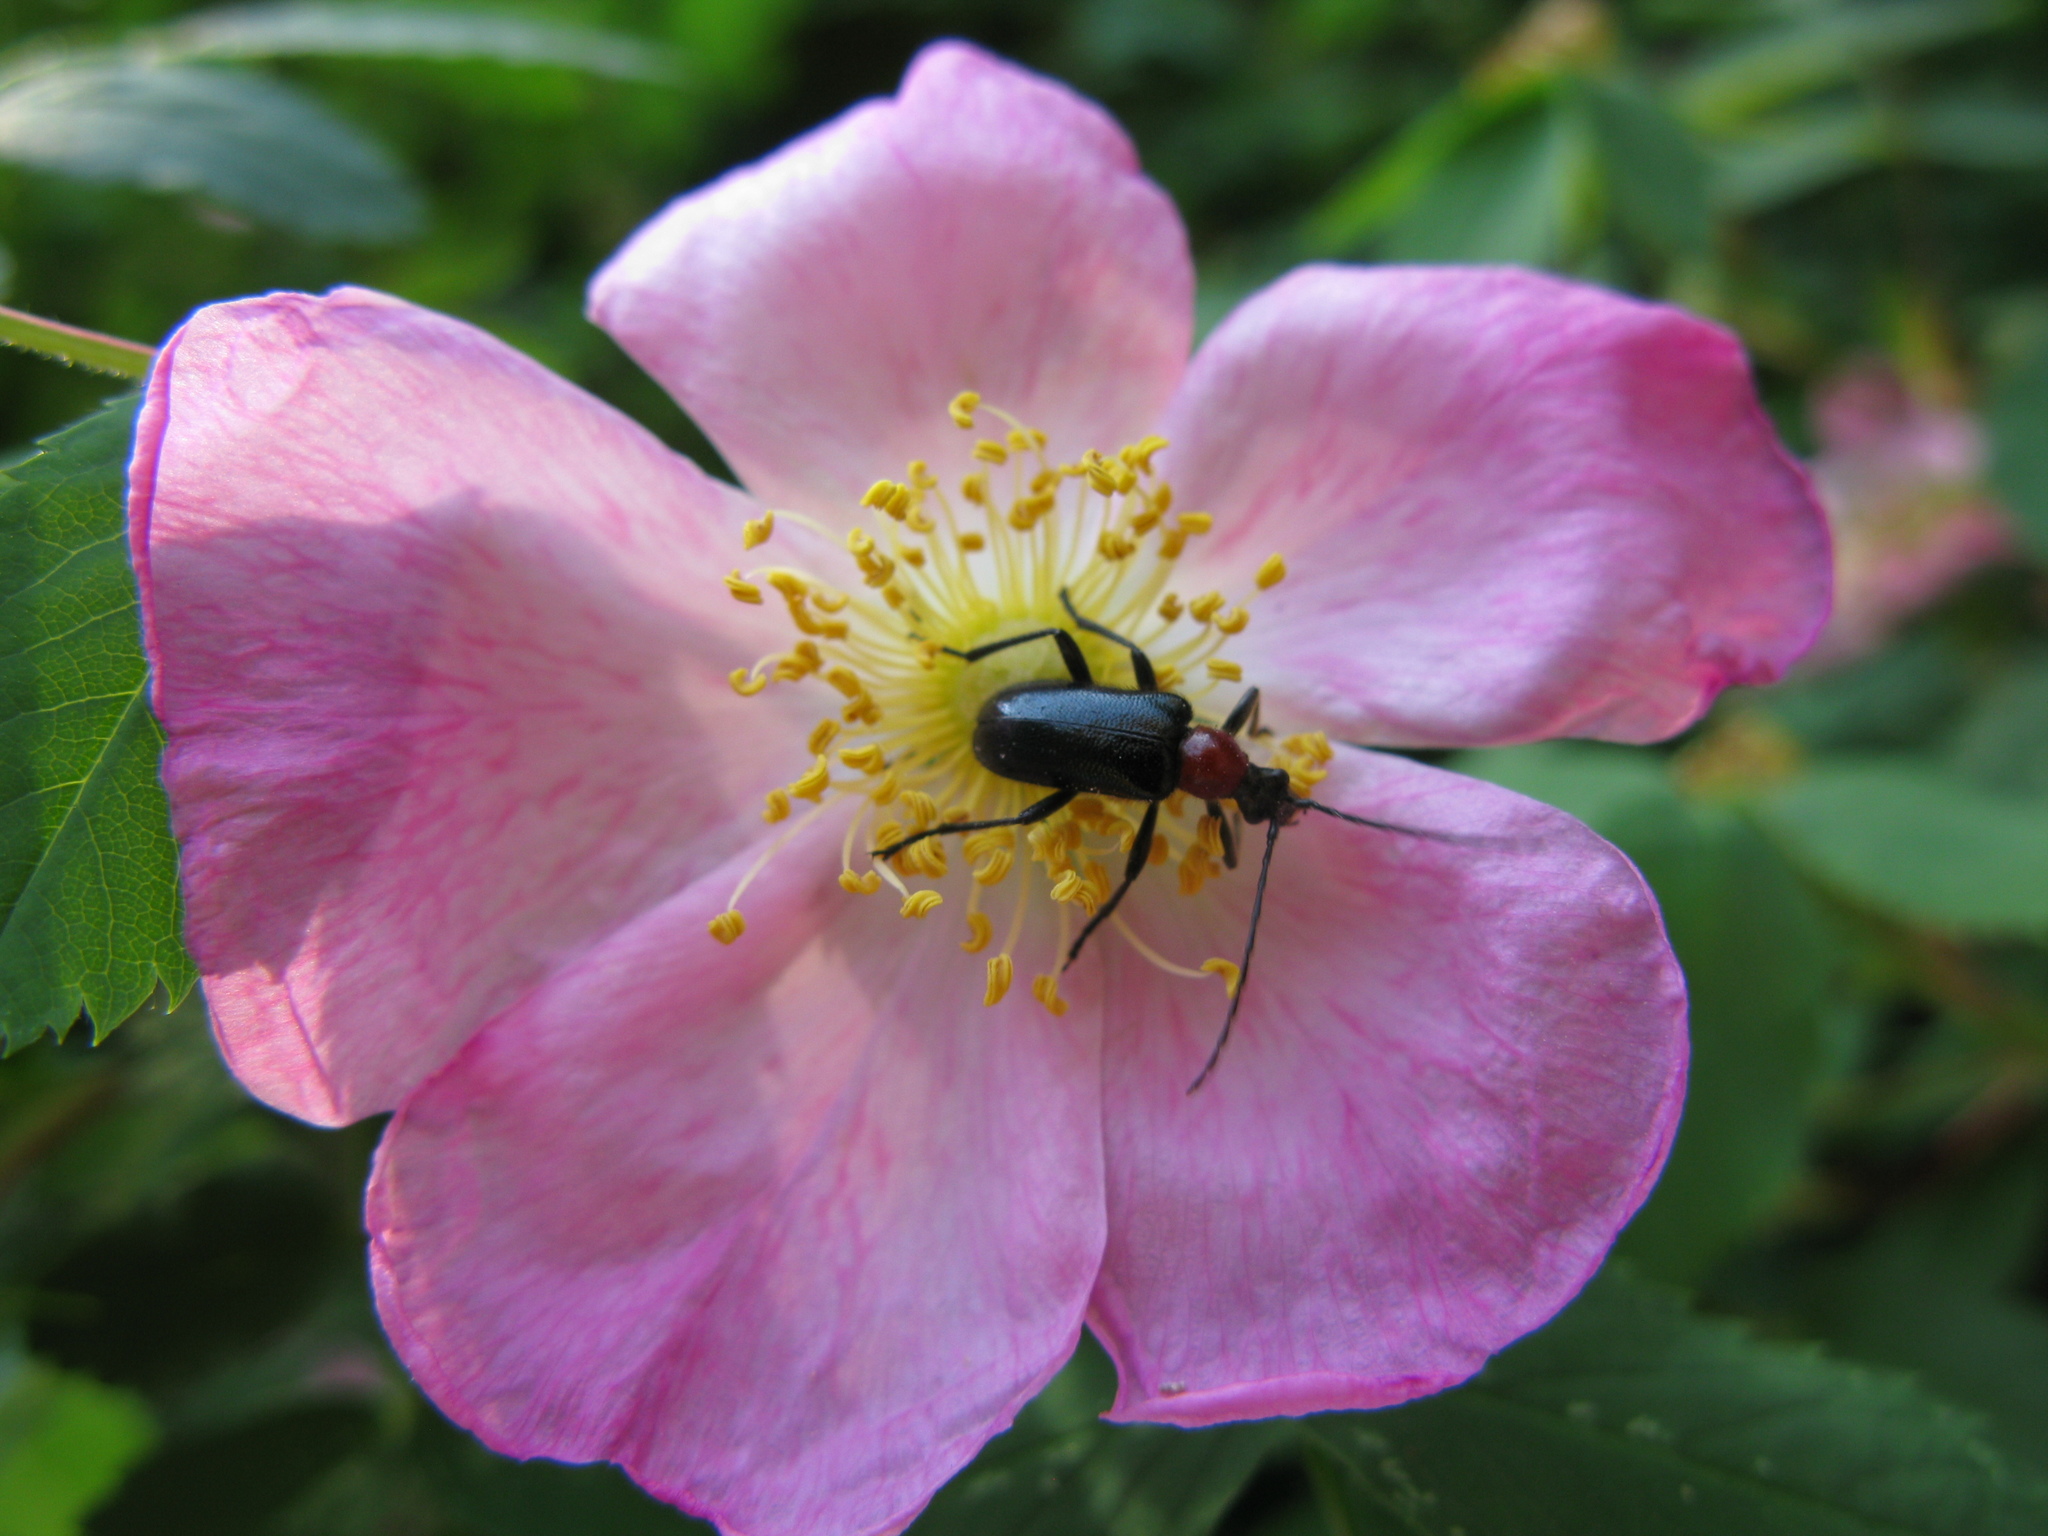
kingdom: Animalia
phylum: Arthropoda
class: Insecta
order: Coleoptera
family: Cerambycidae
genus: Dinoptera
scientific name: Dinoptera collaris
